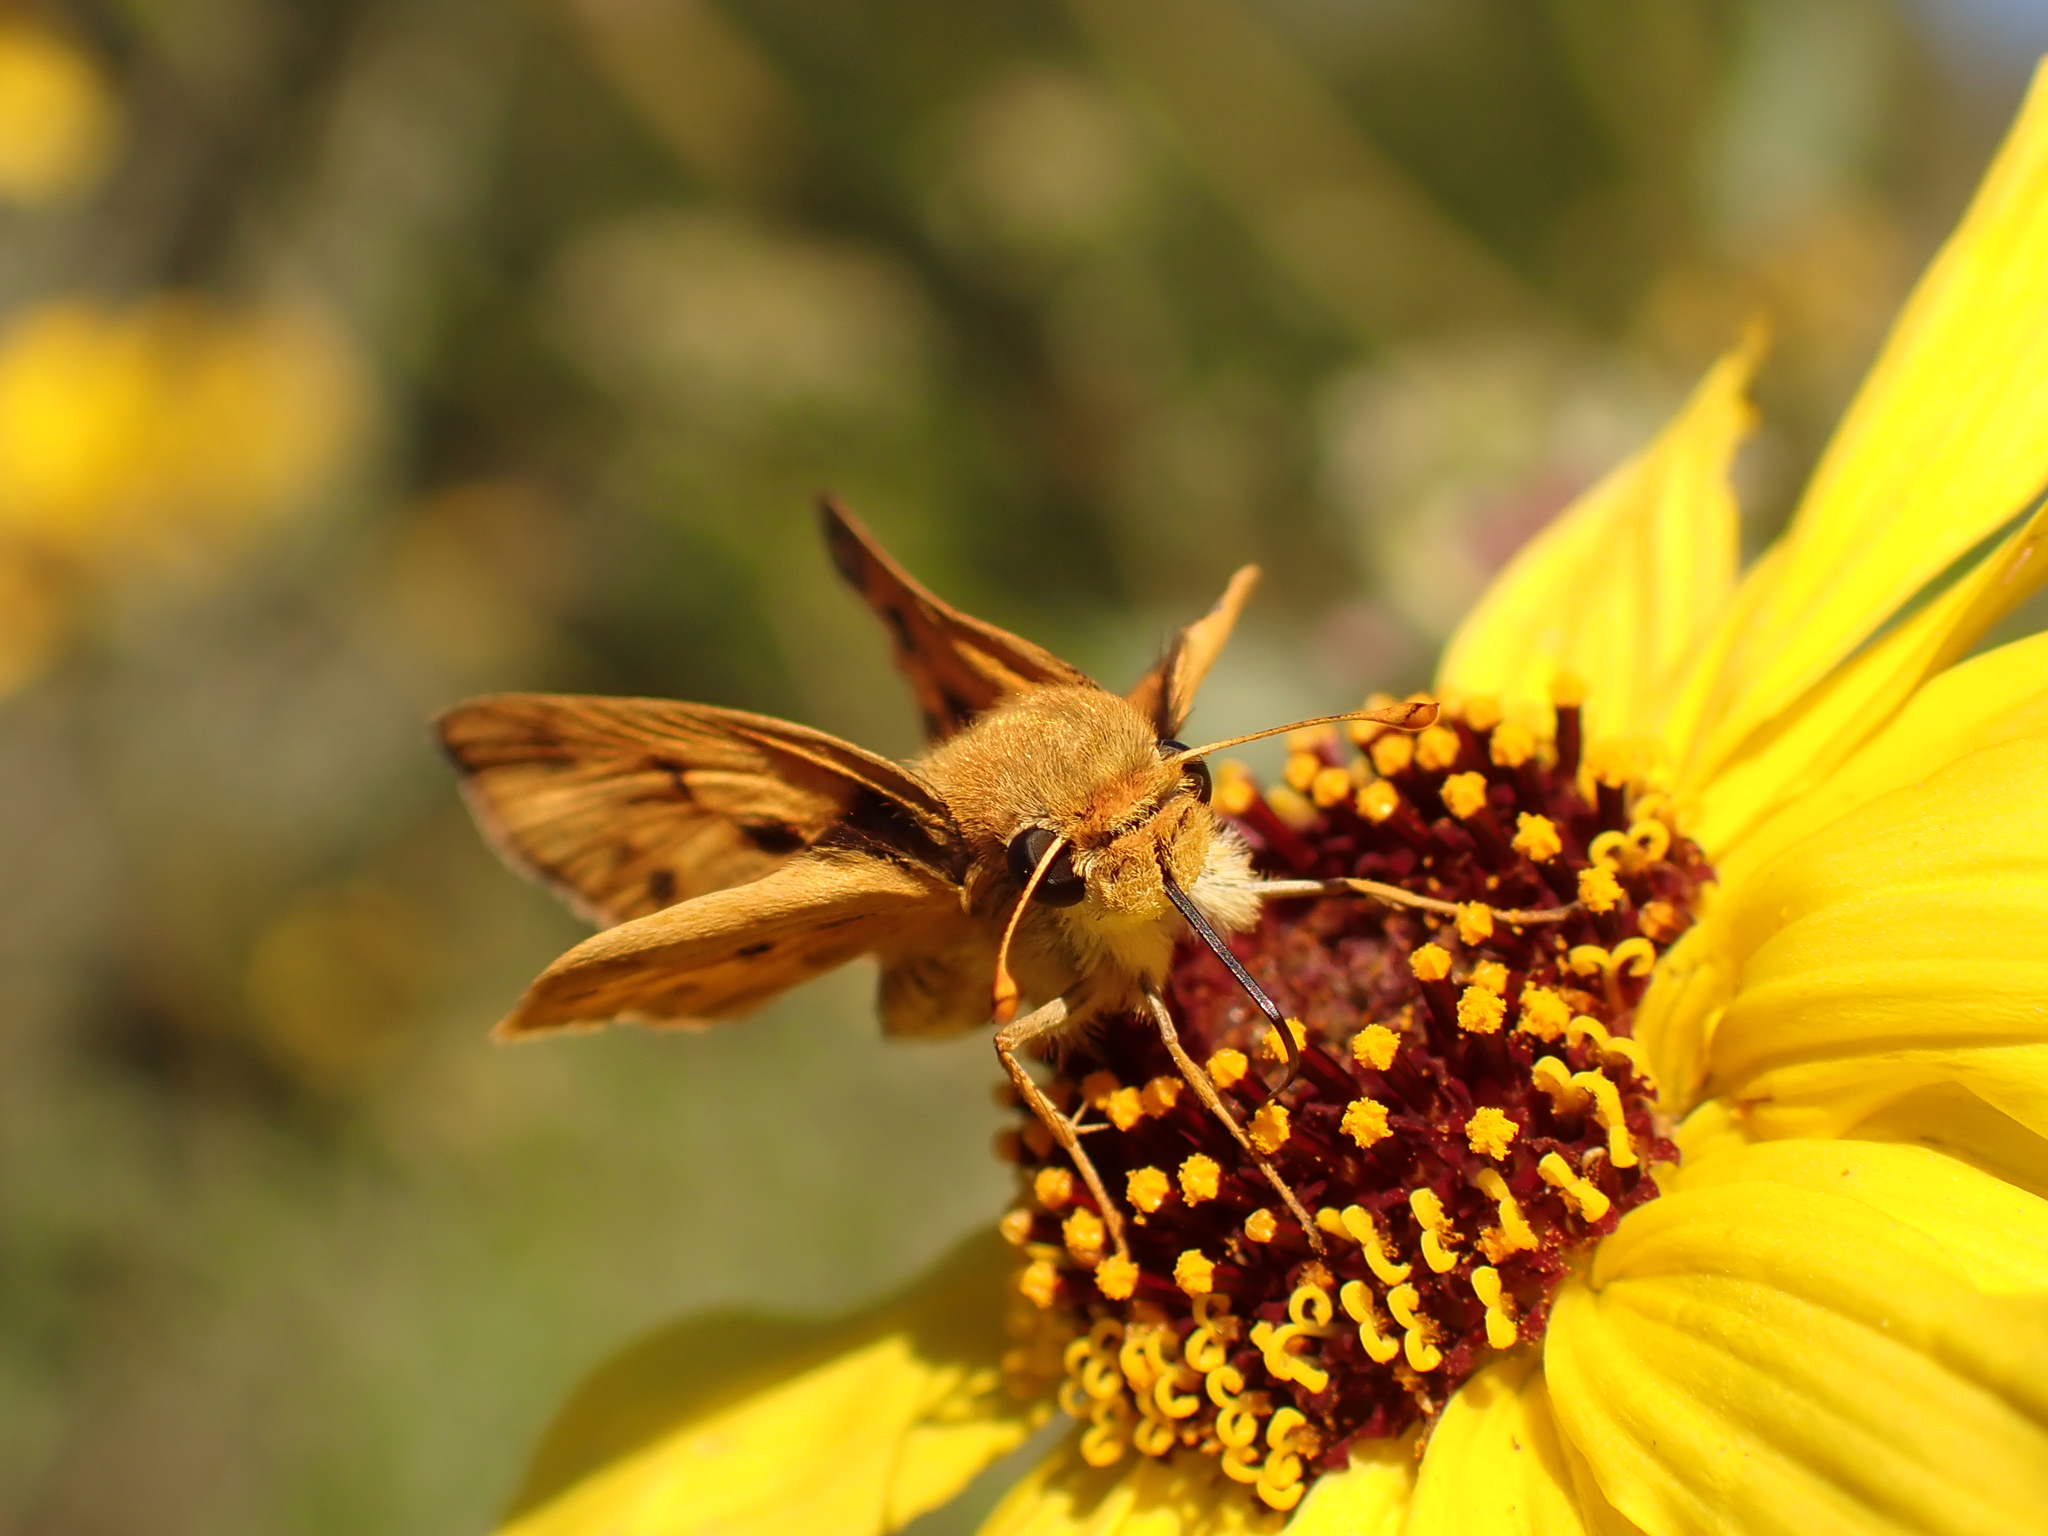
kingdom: Animalia
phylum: Arthropoda
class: Insecta
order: Lepidoptera
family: Hesperiidae
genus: Hylephila
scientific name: Hylephila phyleus
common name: Fiery skipper
